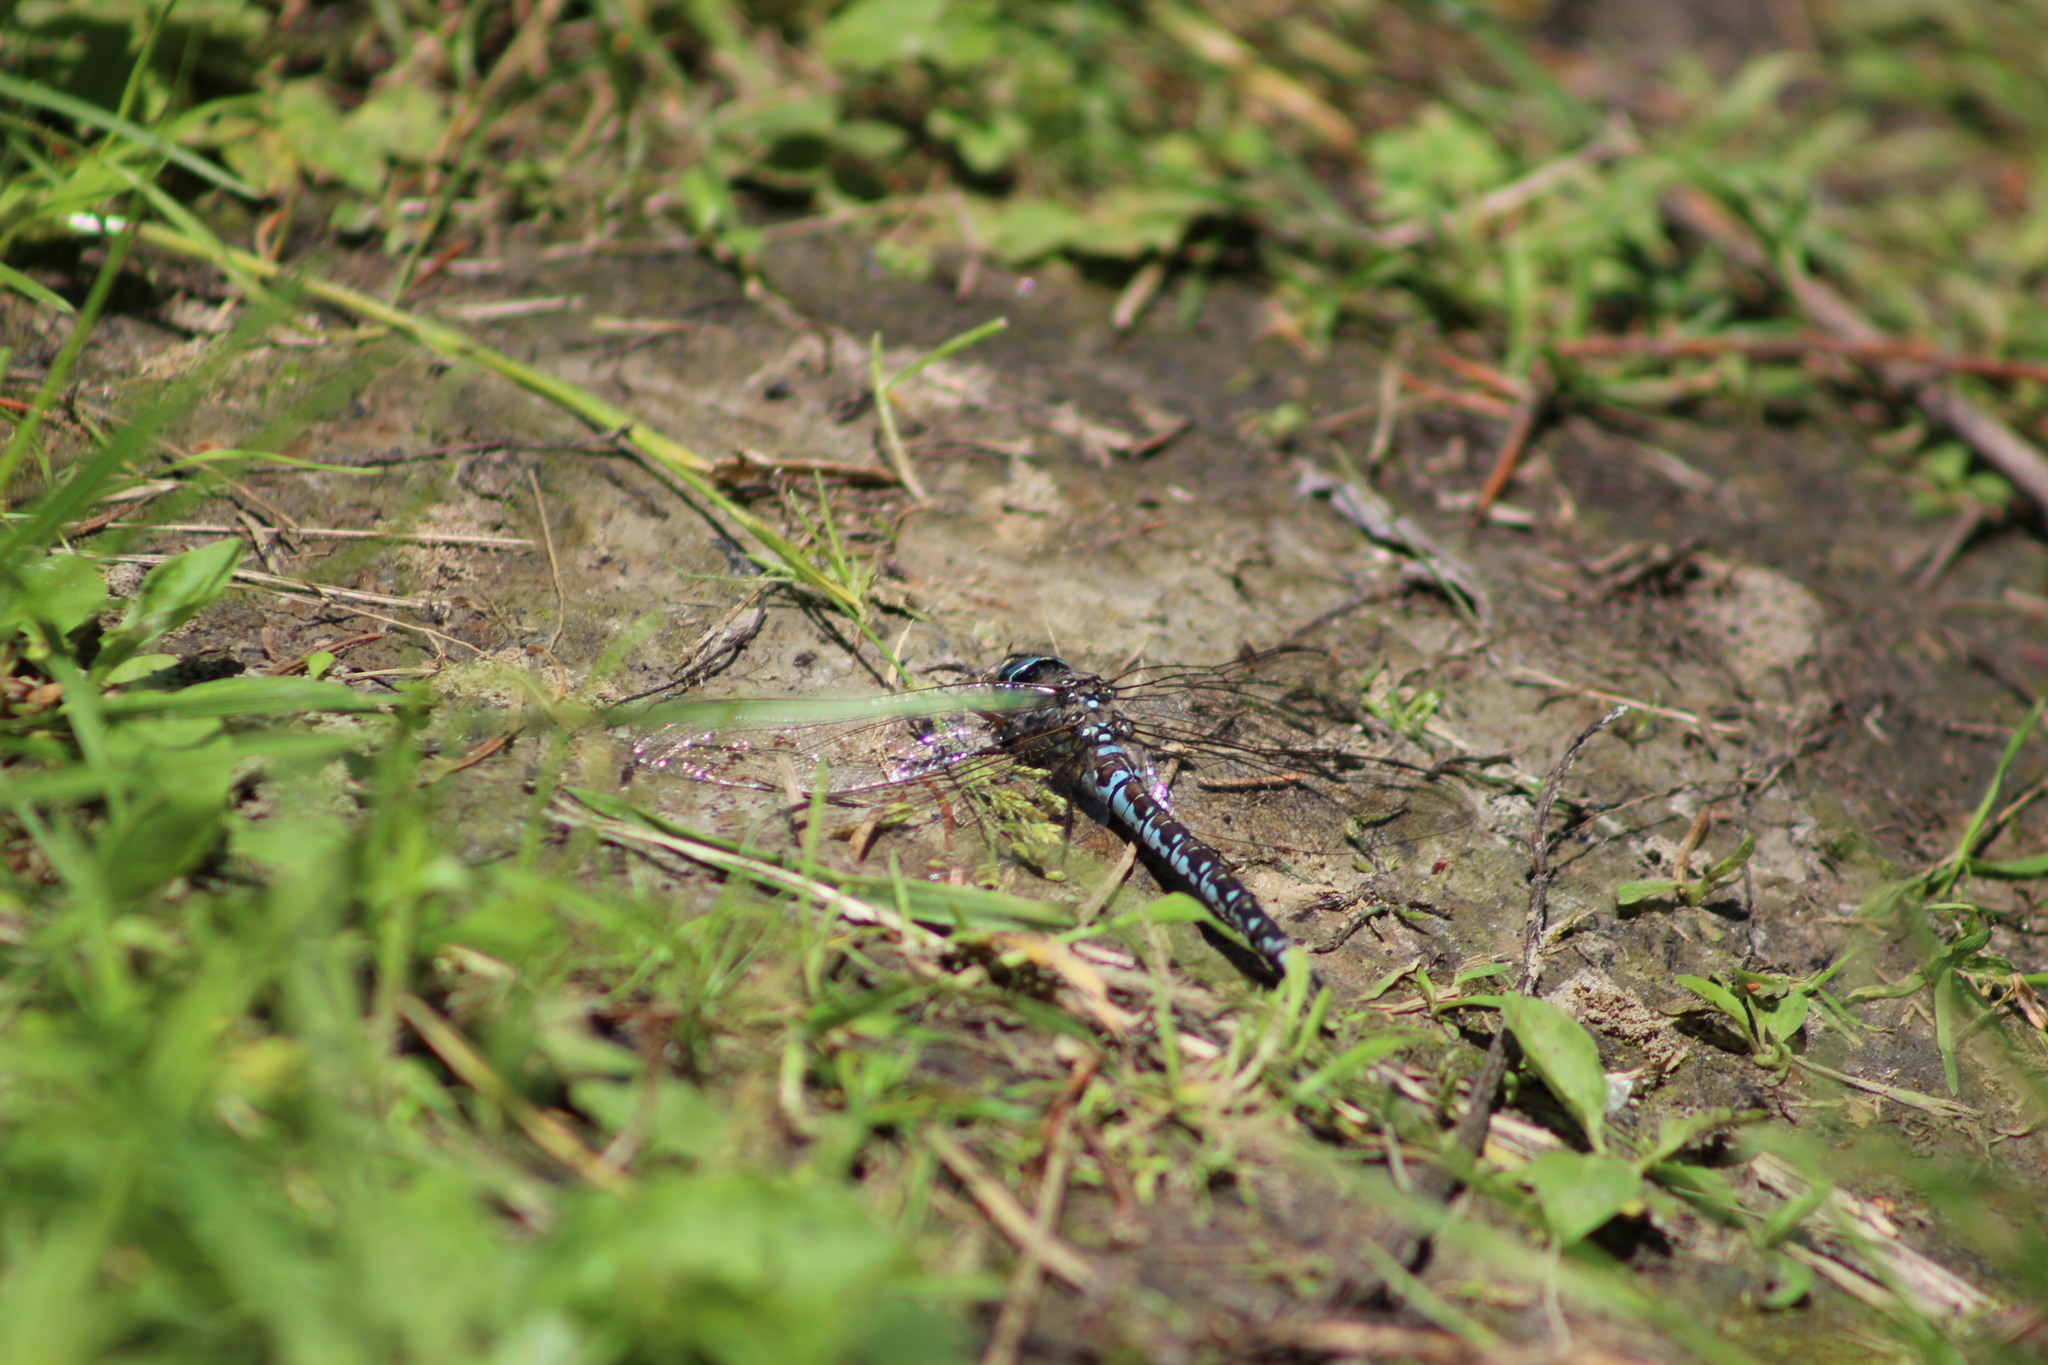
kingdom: Animalia
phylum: Arthropoda
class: Insecta
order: Odonata
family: Aeshnidae
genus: Aeshna
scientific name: Aeshna caerulea
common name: Azure hawker
